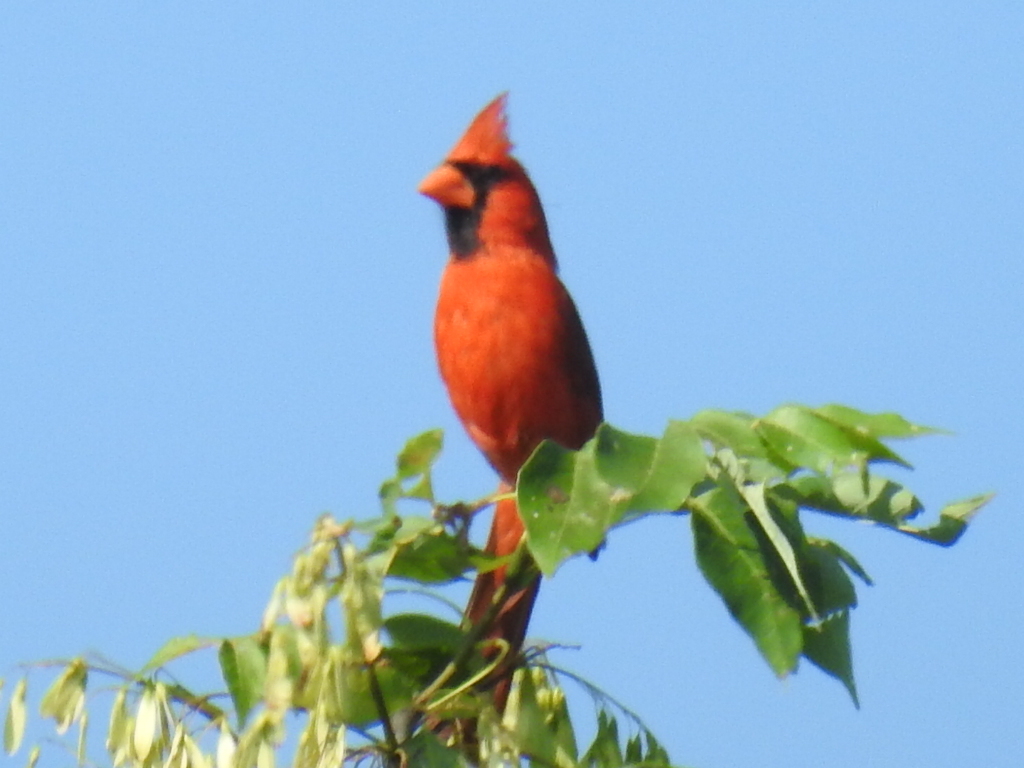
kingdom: Animalia
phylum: Chordata
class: Aves
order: Passeriformes
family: Cardinalidae
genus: Cardinalis
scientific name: Cardinalis cardinalis
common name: Northern cardinal
